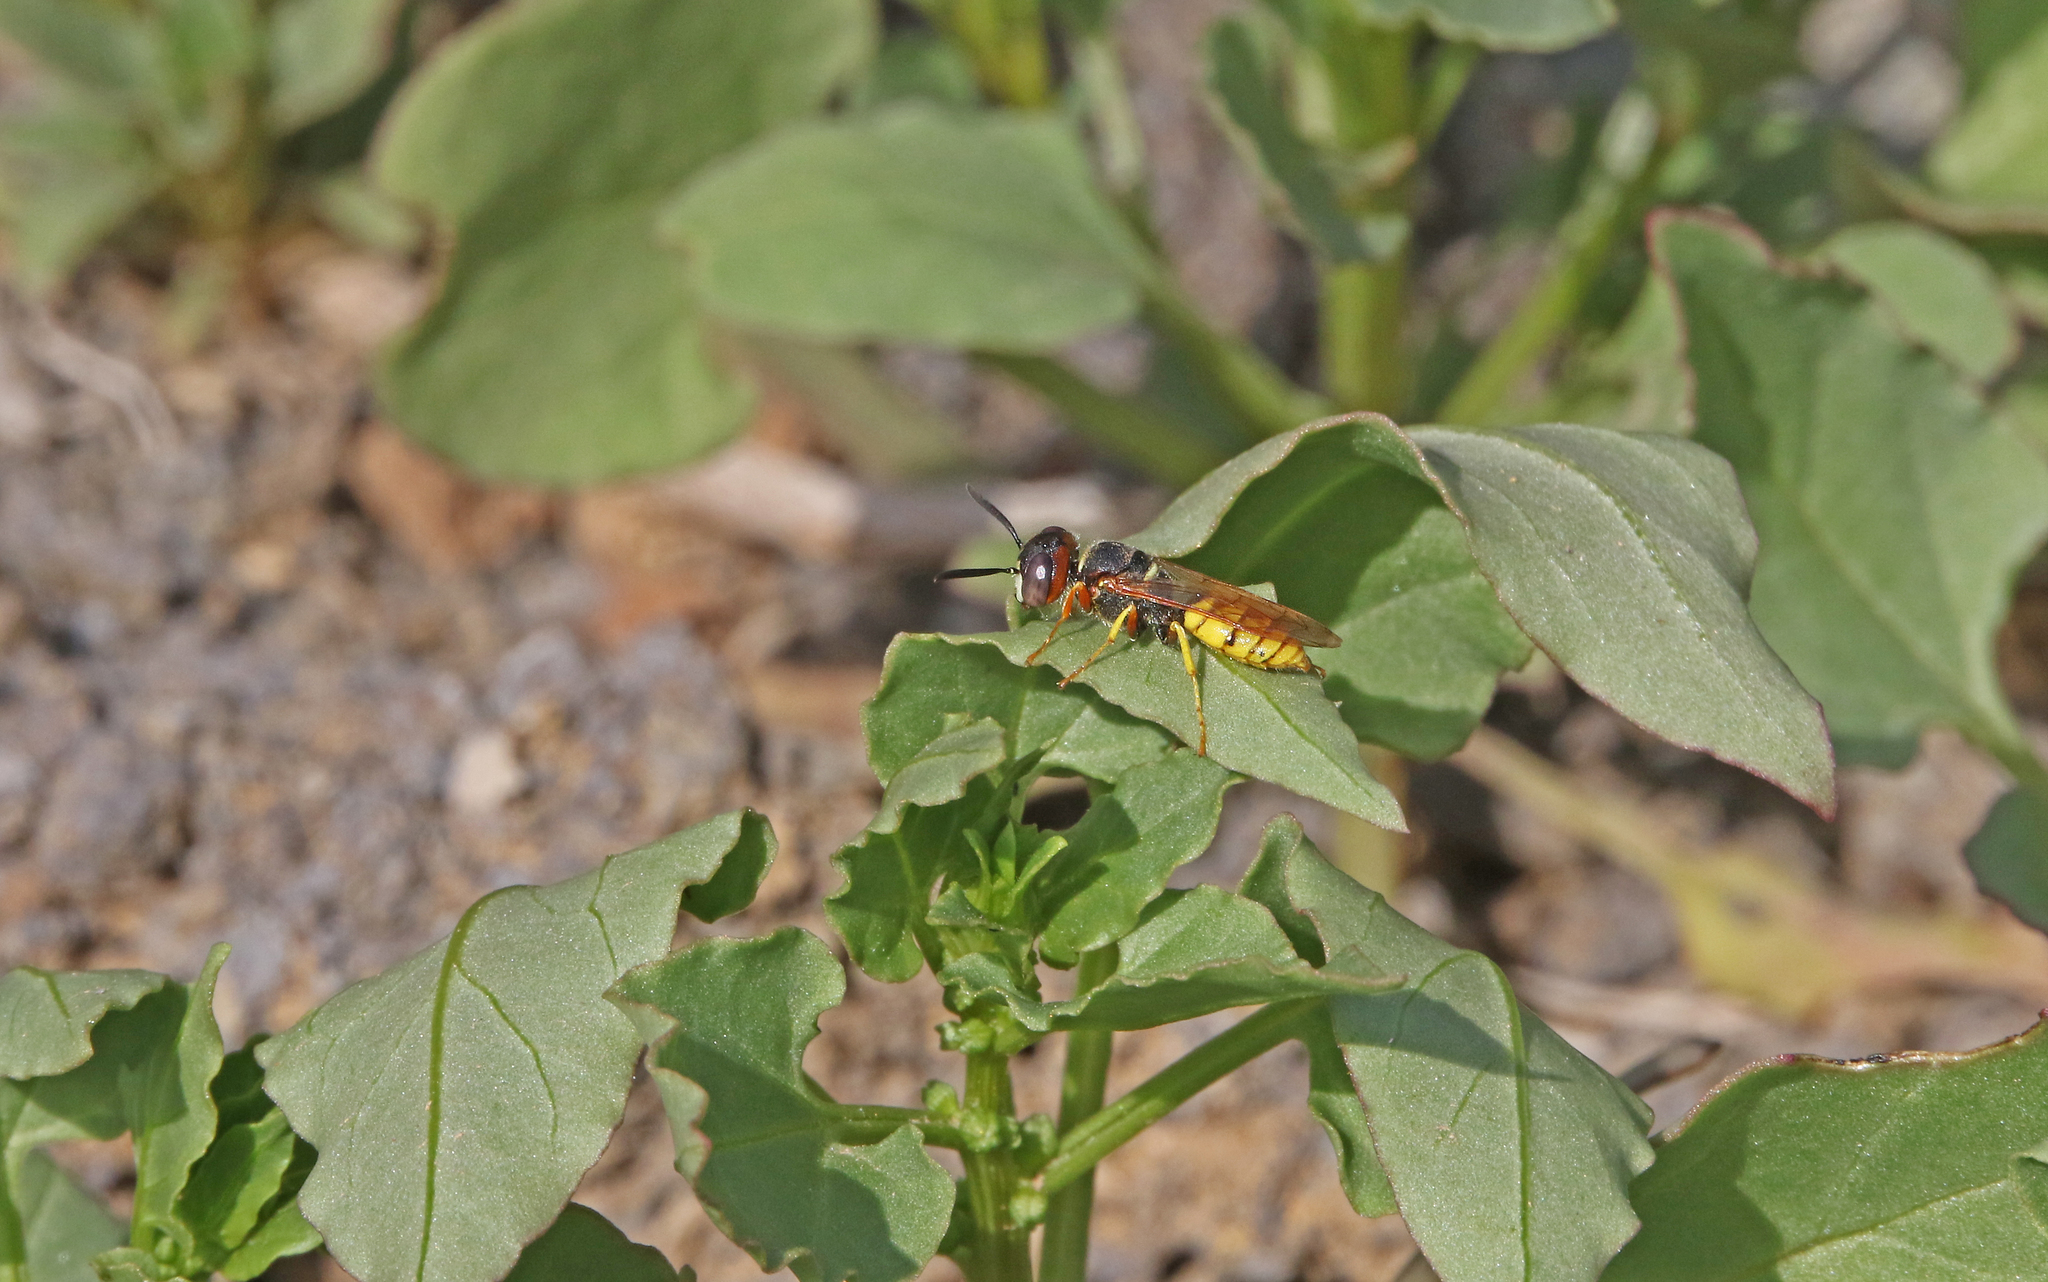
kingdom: Animalia
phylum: Arthropoda
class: Insecta
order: Hymenoptera
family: Crabronidae
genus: Philanthus
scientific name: Philanthus triangulum
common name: Bee wolf
